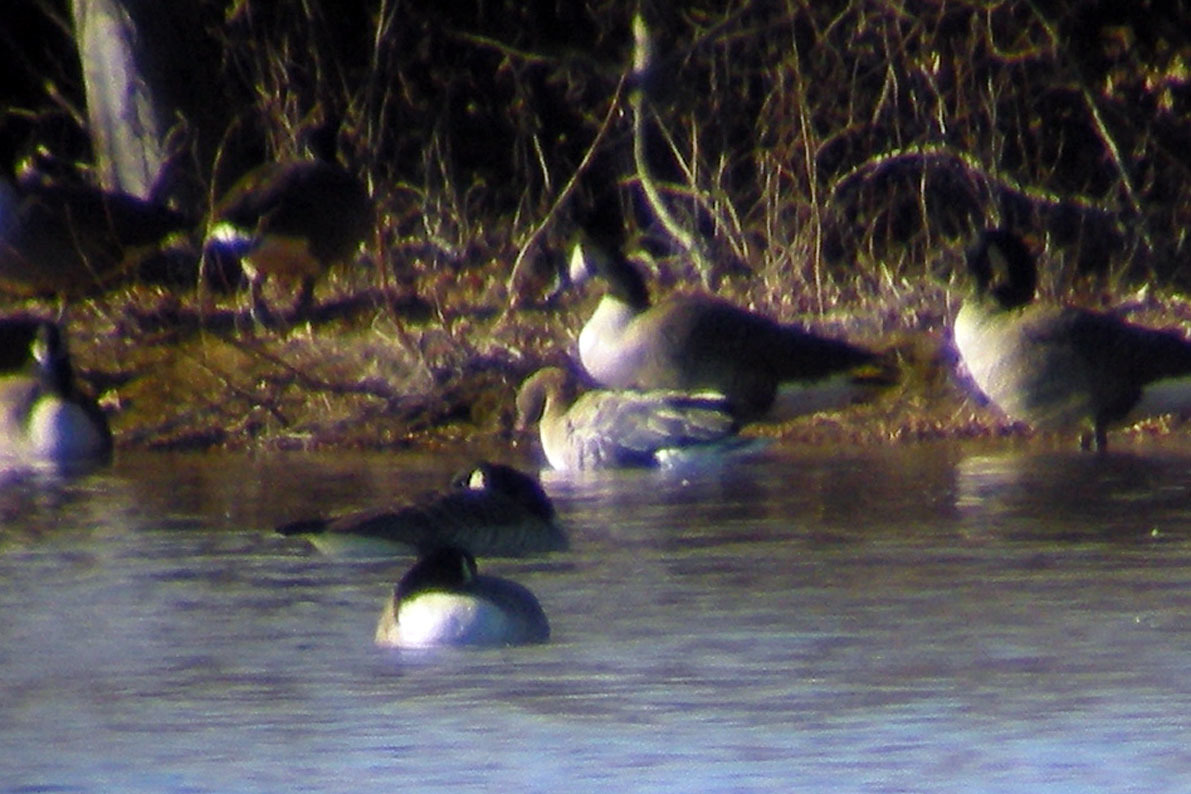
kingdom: Animalia
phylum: Chordata
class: Aves
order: Anseriformes
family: Anatidae
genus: Anser
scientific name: Anser brachyrhynchus
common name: Pink-footed goose
